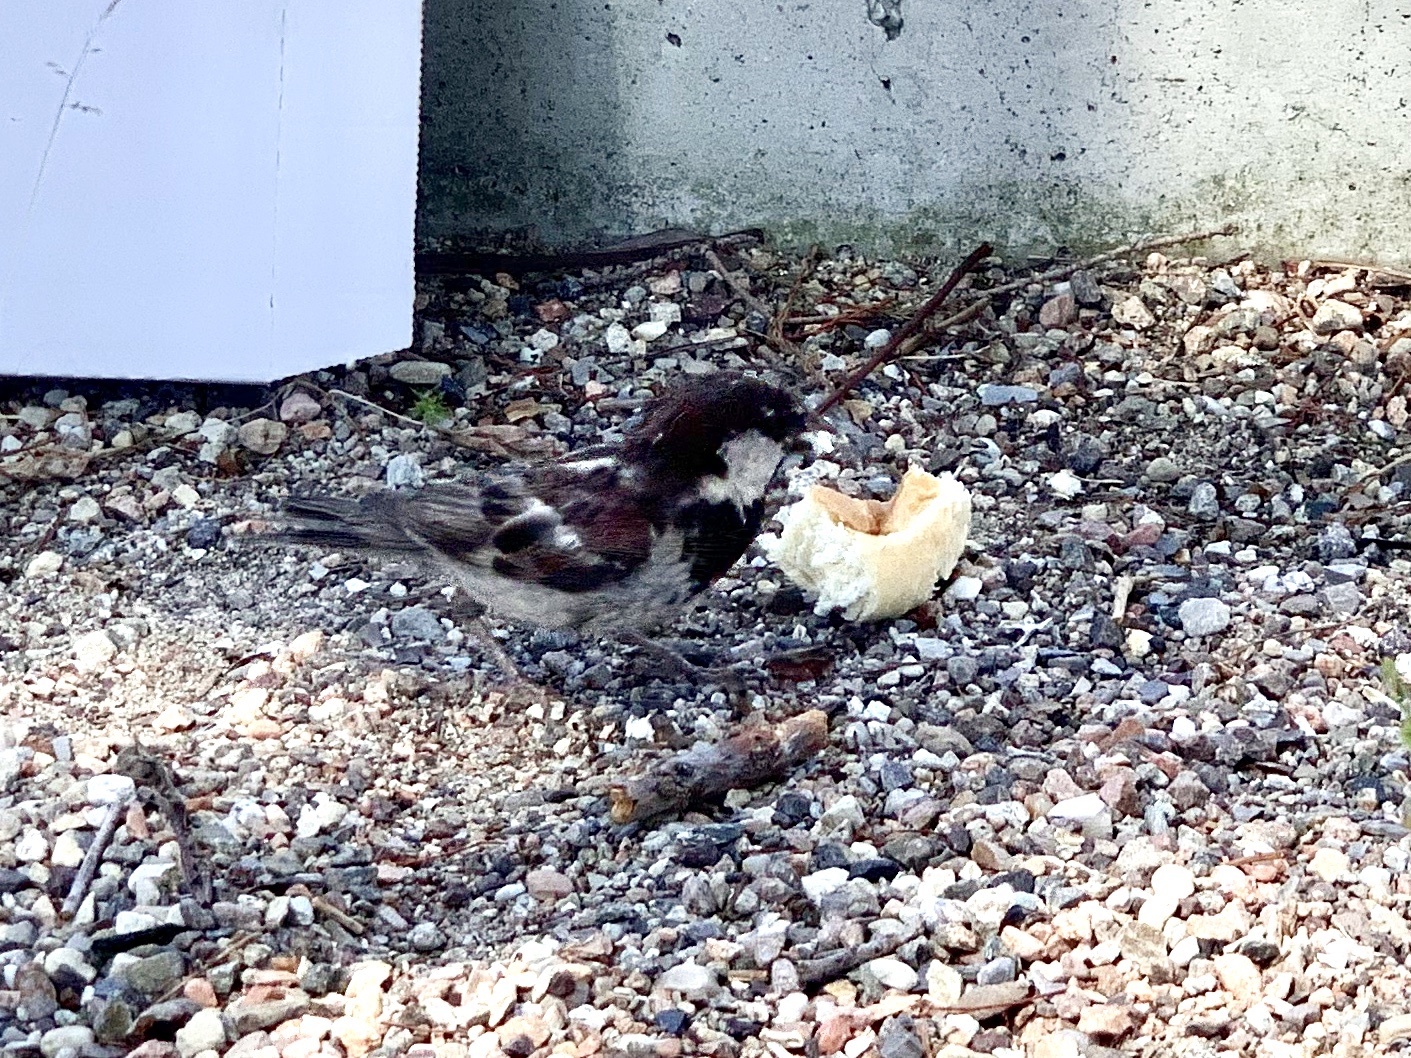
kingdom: Animalia
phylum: Chordata
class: Aves
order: Passeriformes
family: Passeridae
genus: Passer
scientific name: Passer italiae
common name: Italian sparrow
